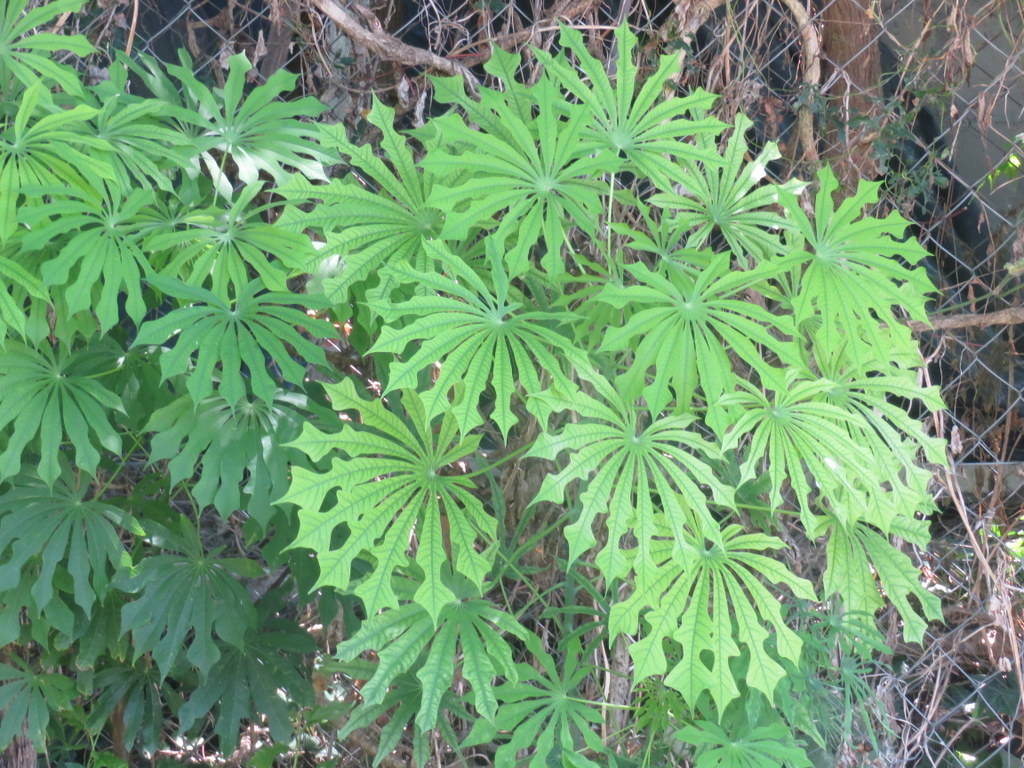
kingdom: Plantae
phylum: Tracheophyta
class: Magnoliopsida
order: Malpighiales
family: Euphorbiaceae
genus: Manihot
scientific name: Manihot grahamii
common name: Graham's manihot
